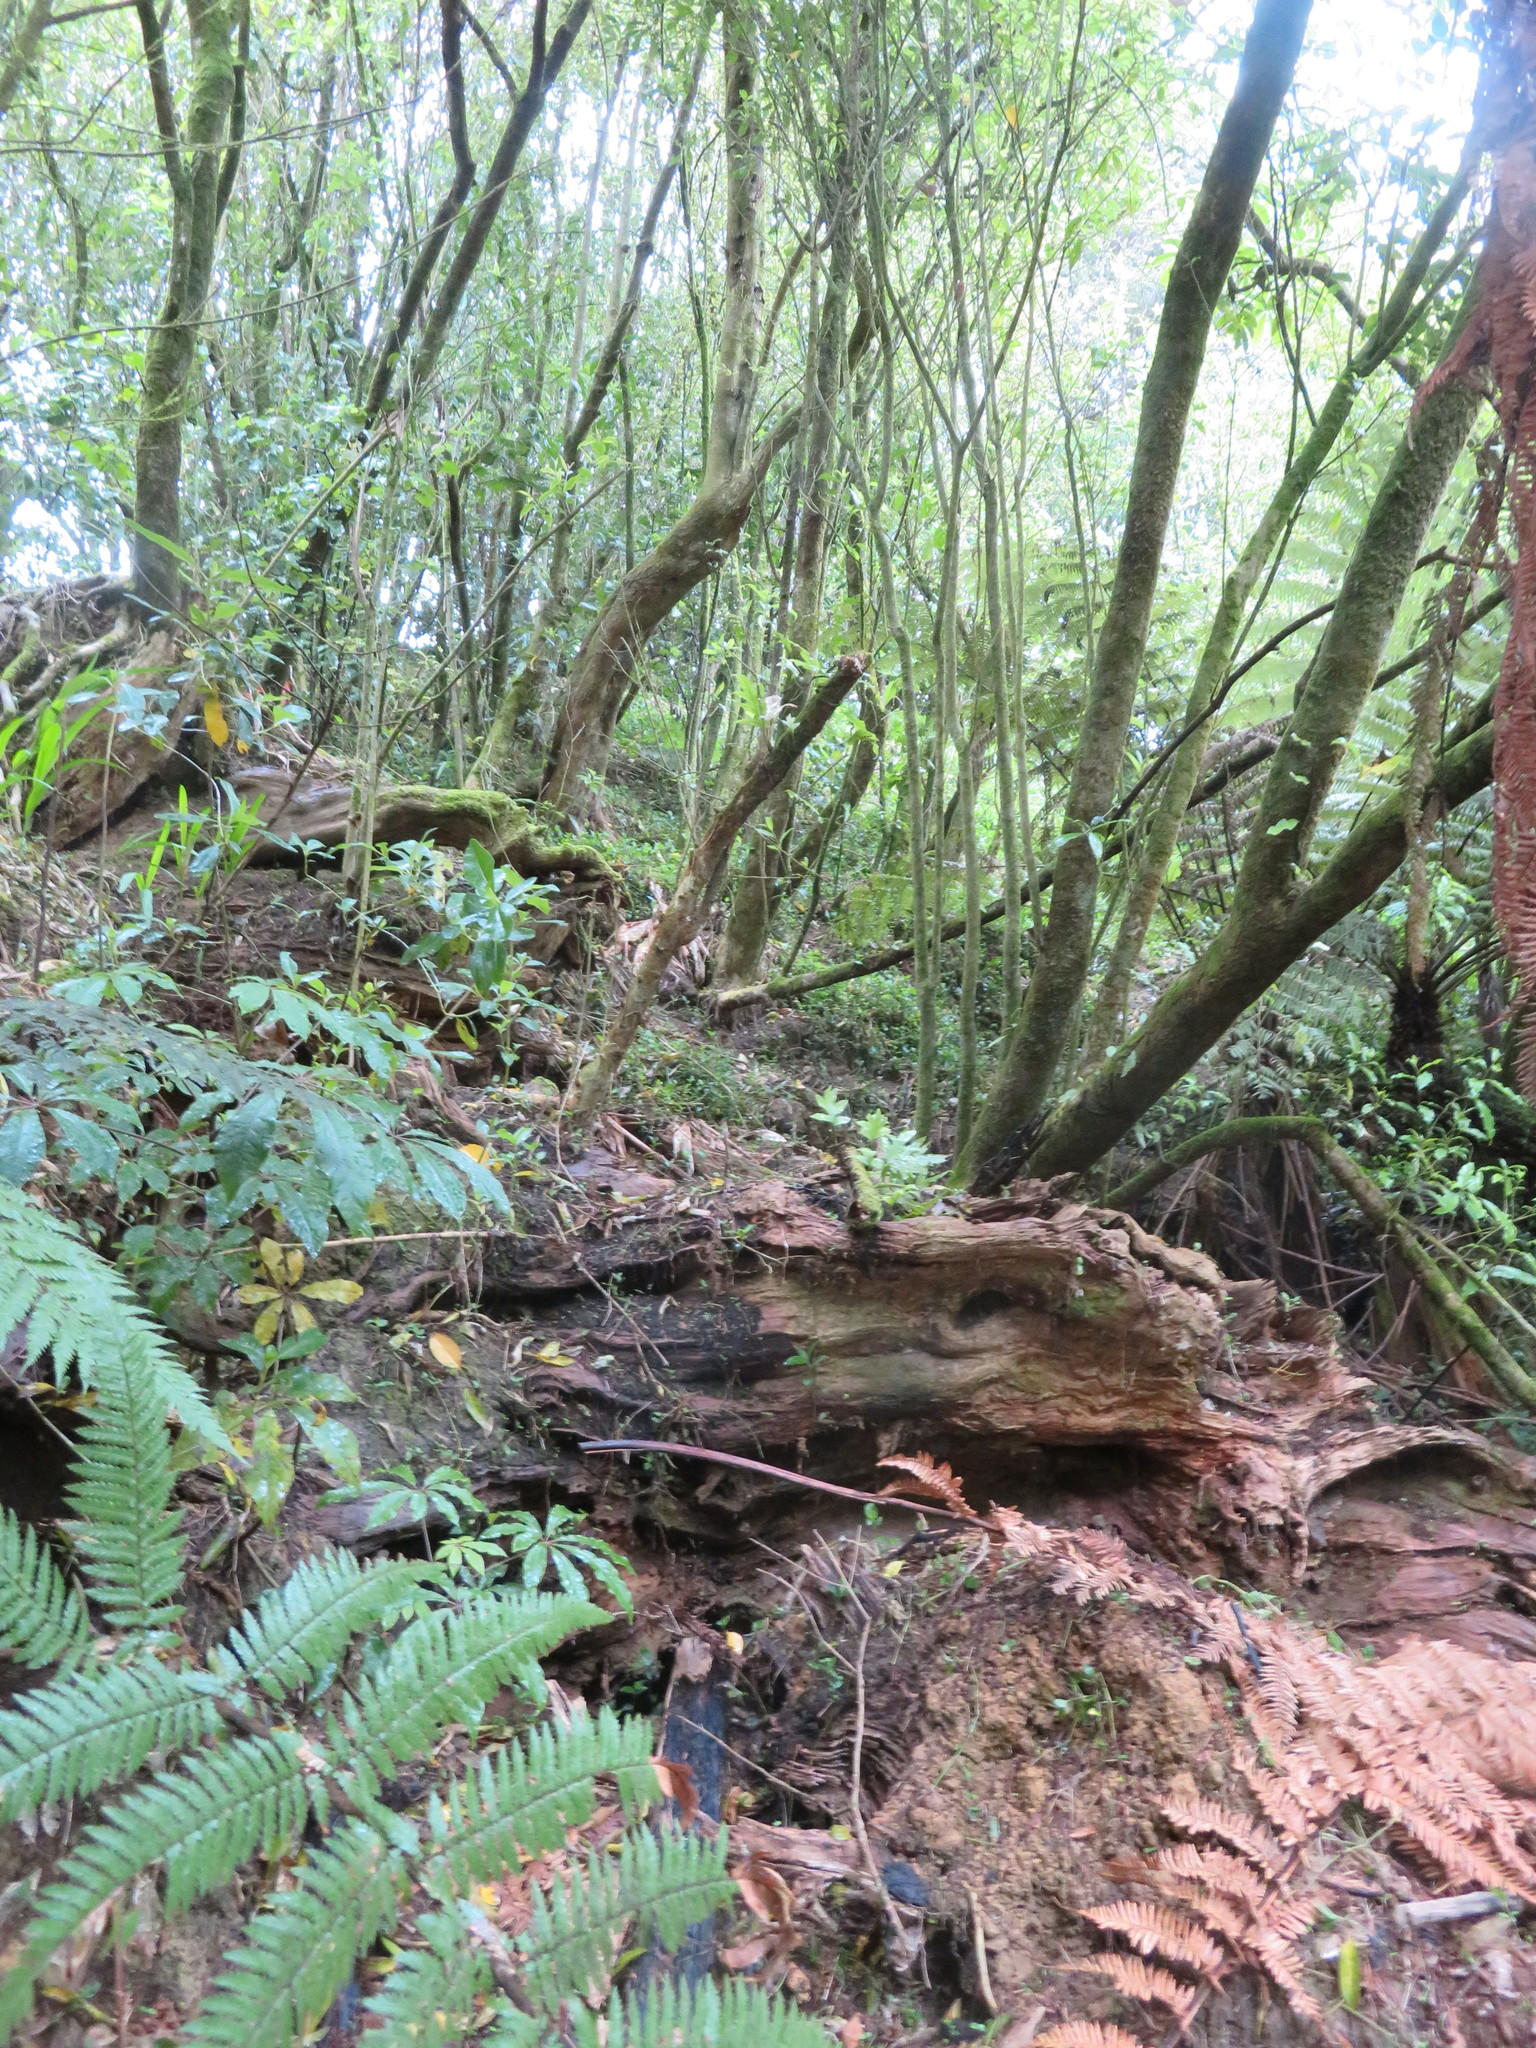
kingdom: Plantae
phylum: Tracheophyta
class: Magnoliopsida
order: Apiales
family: Araliaceae
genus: Schefflera
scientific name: Schefflera digitata
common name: Pate
